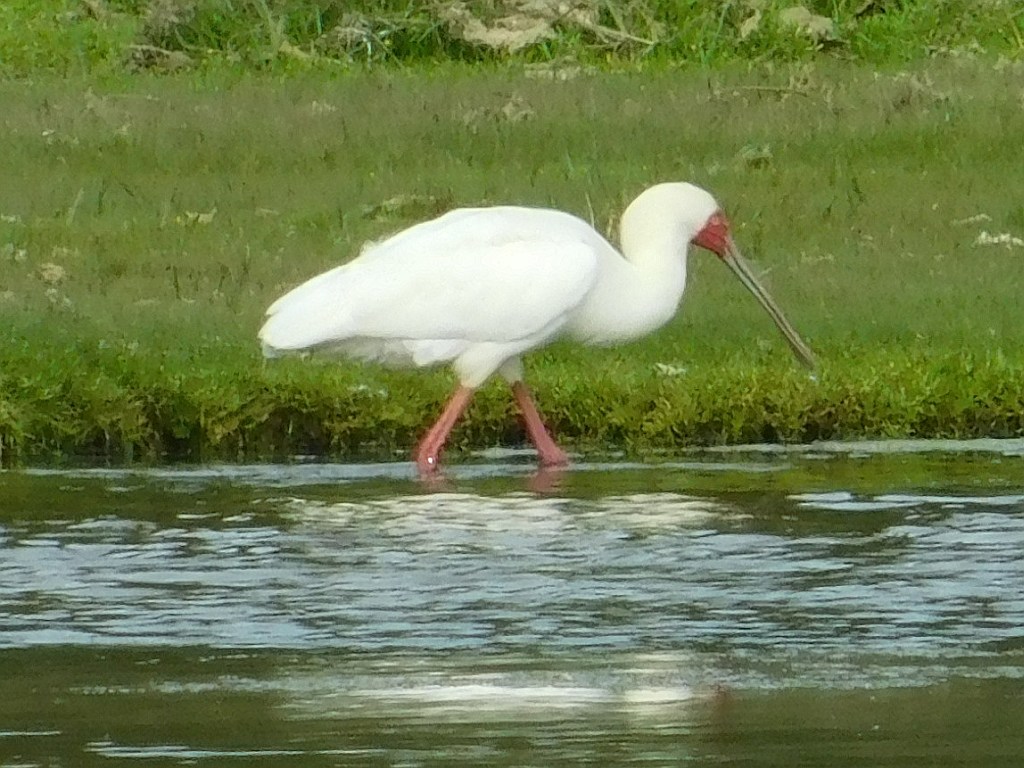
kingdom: Animalia
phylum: Chordata
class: Aves
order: Pelecaniformes
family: Threskiornithidae
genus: Platalea
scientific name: Platalea alba
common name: African spoonbill
